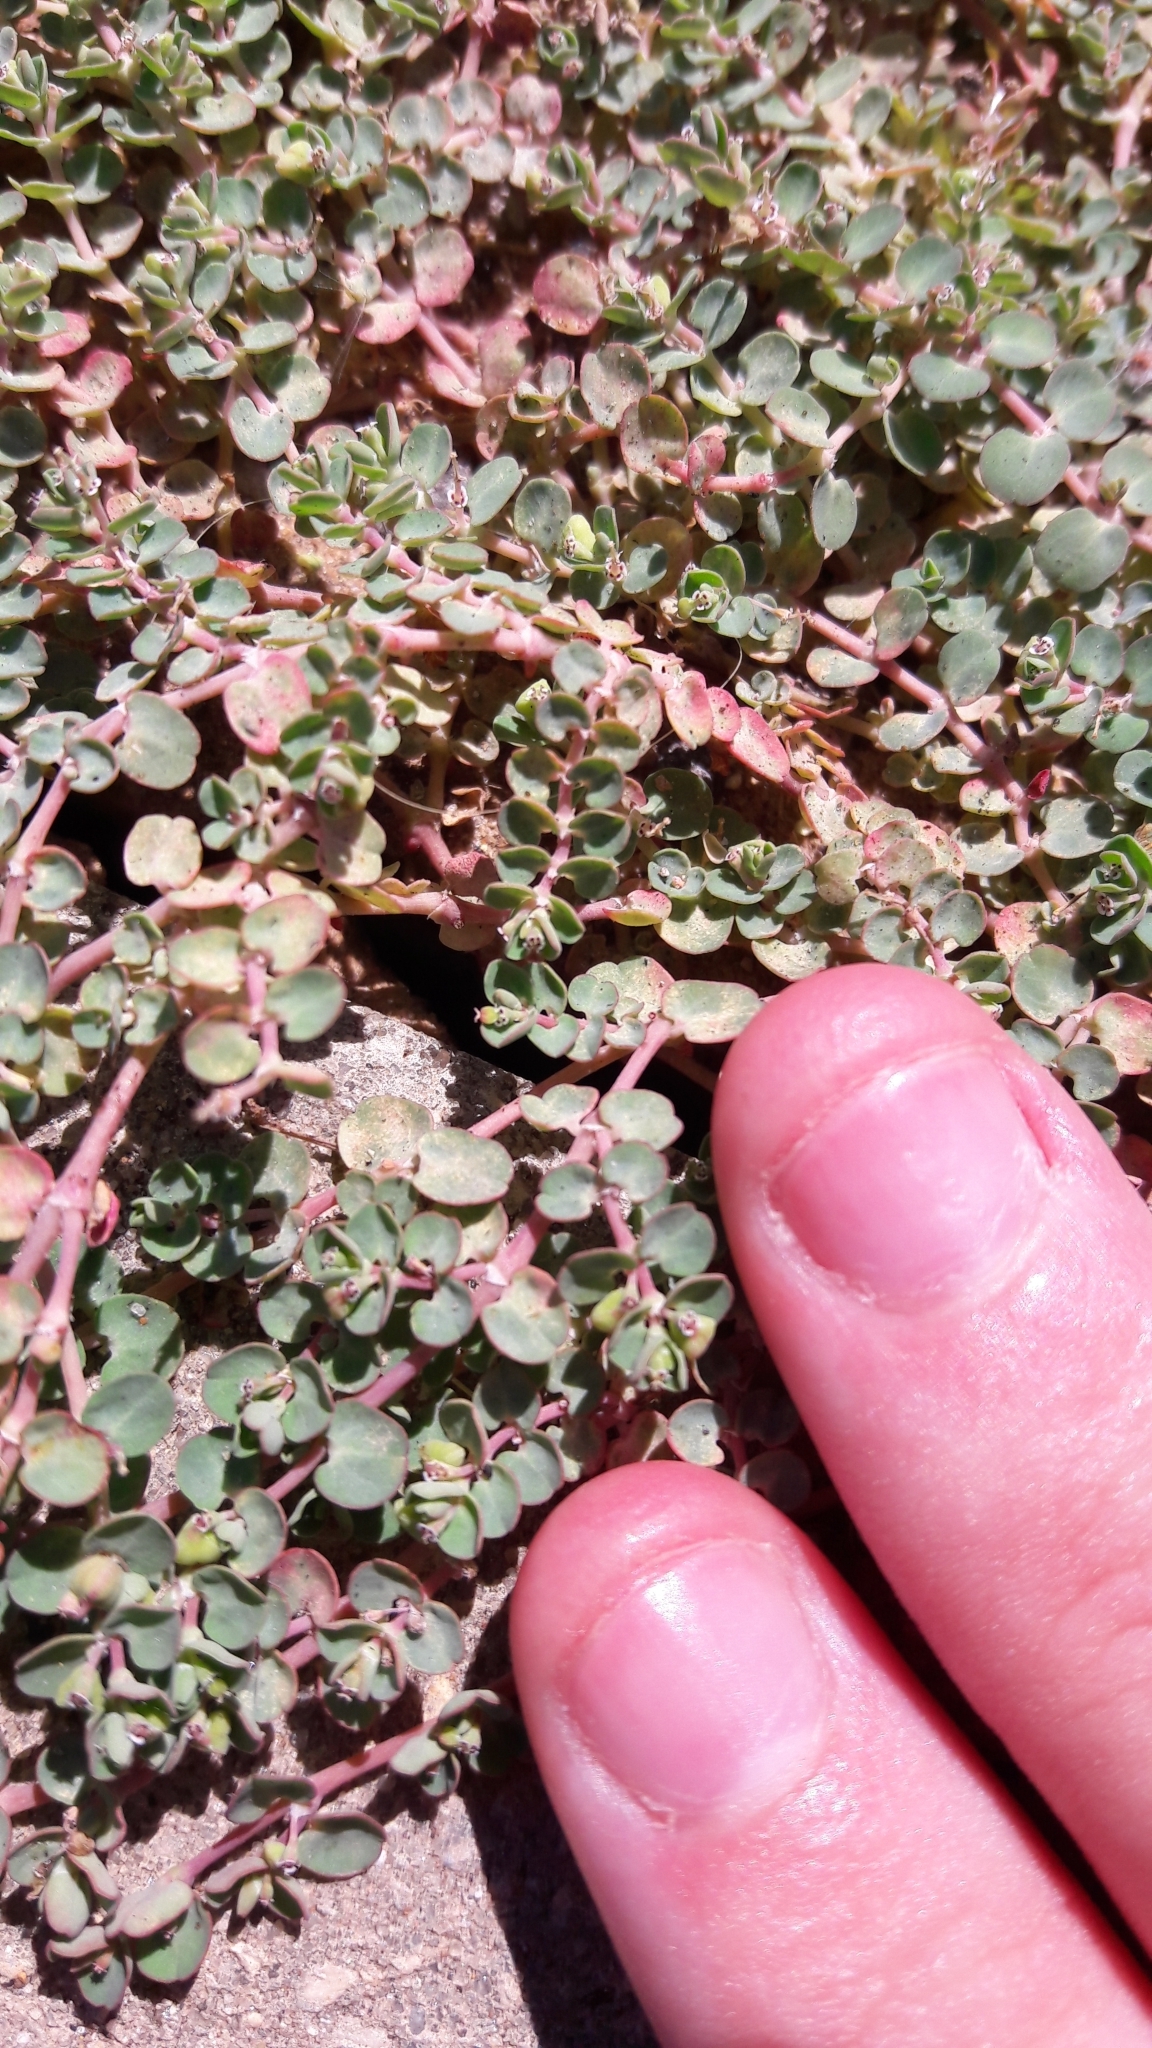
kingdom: Plantae
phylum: Tracheophyta
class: Magnoliopsida
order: Malpighiales
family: Euphorbiaceae
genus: Euphorbia
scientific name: Euphorbia serpens
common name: Matted sandmat
